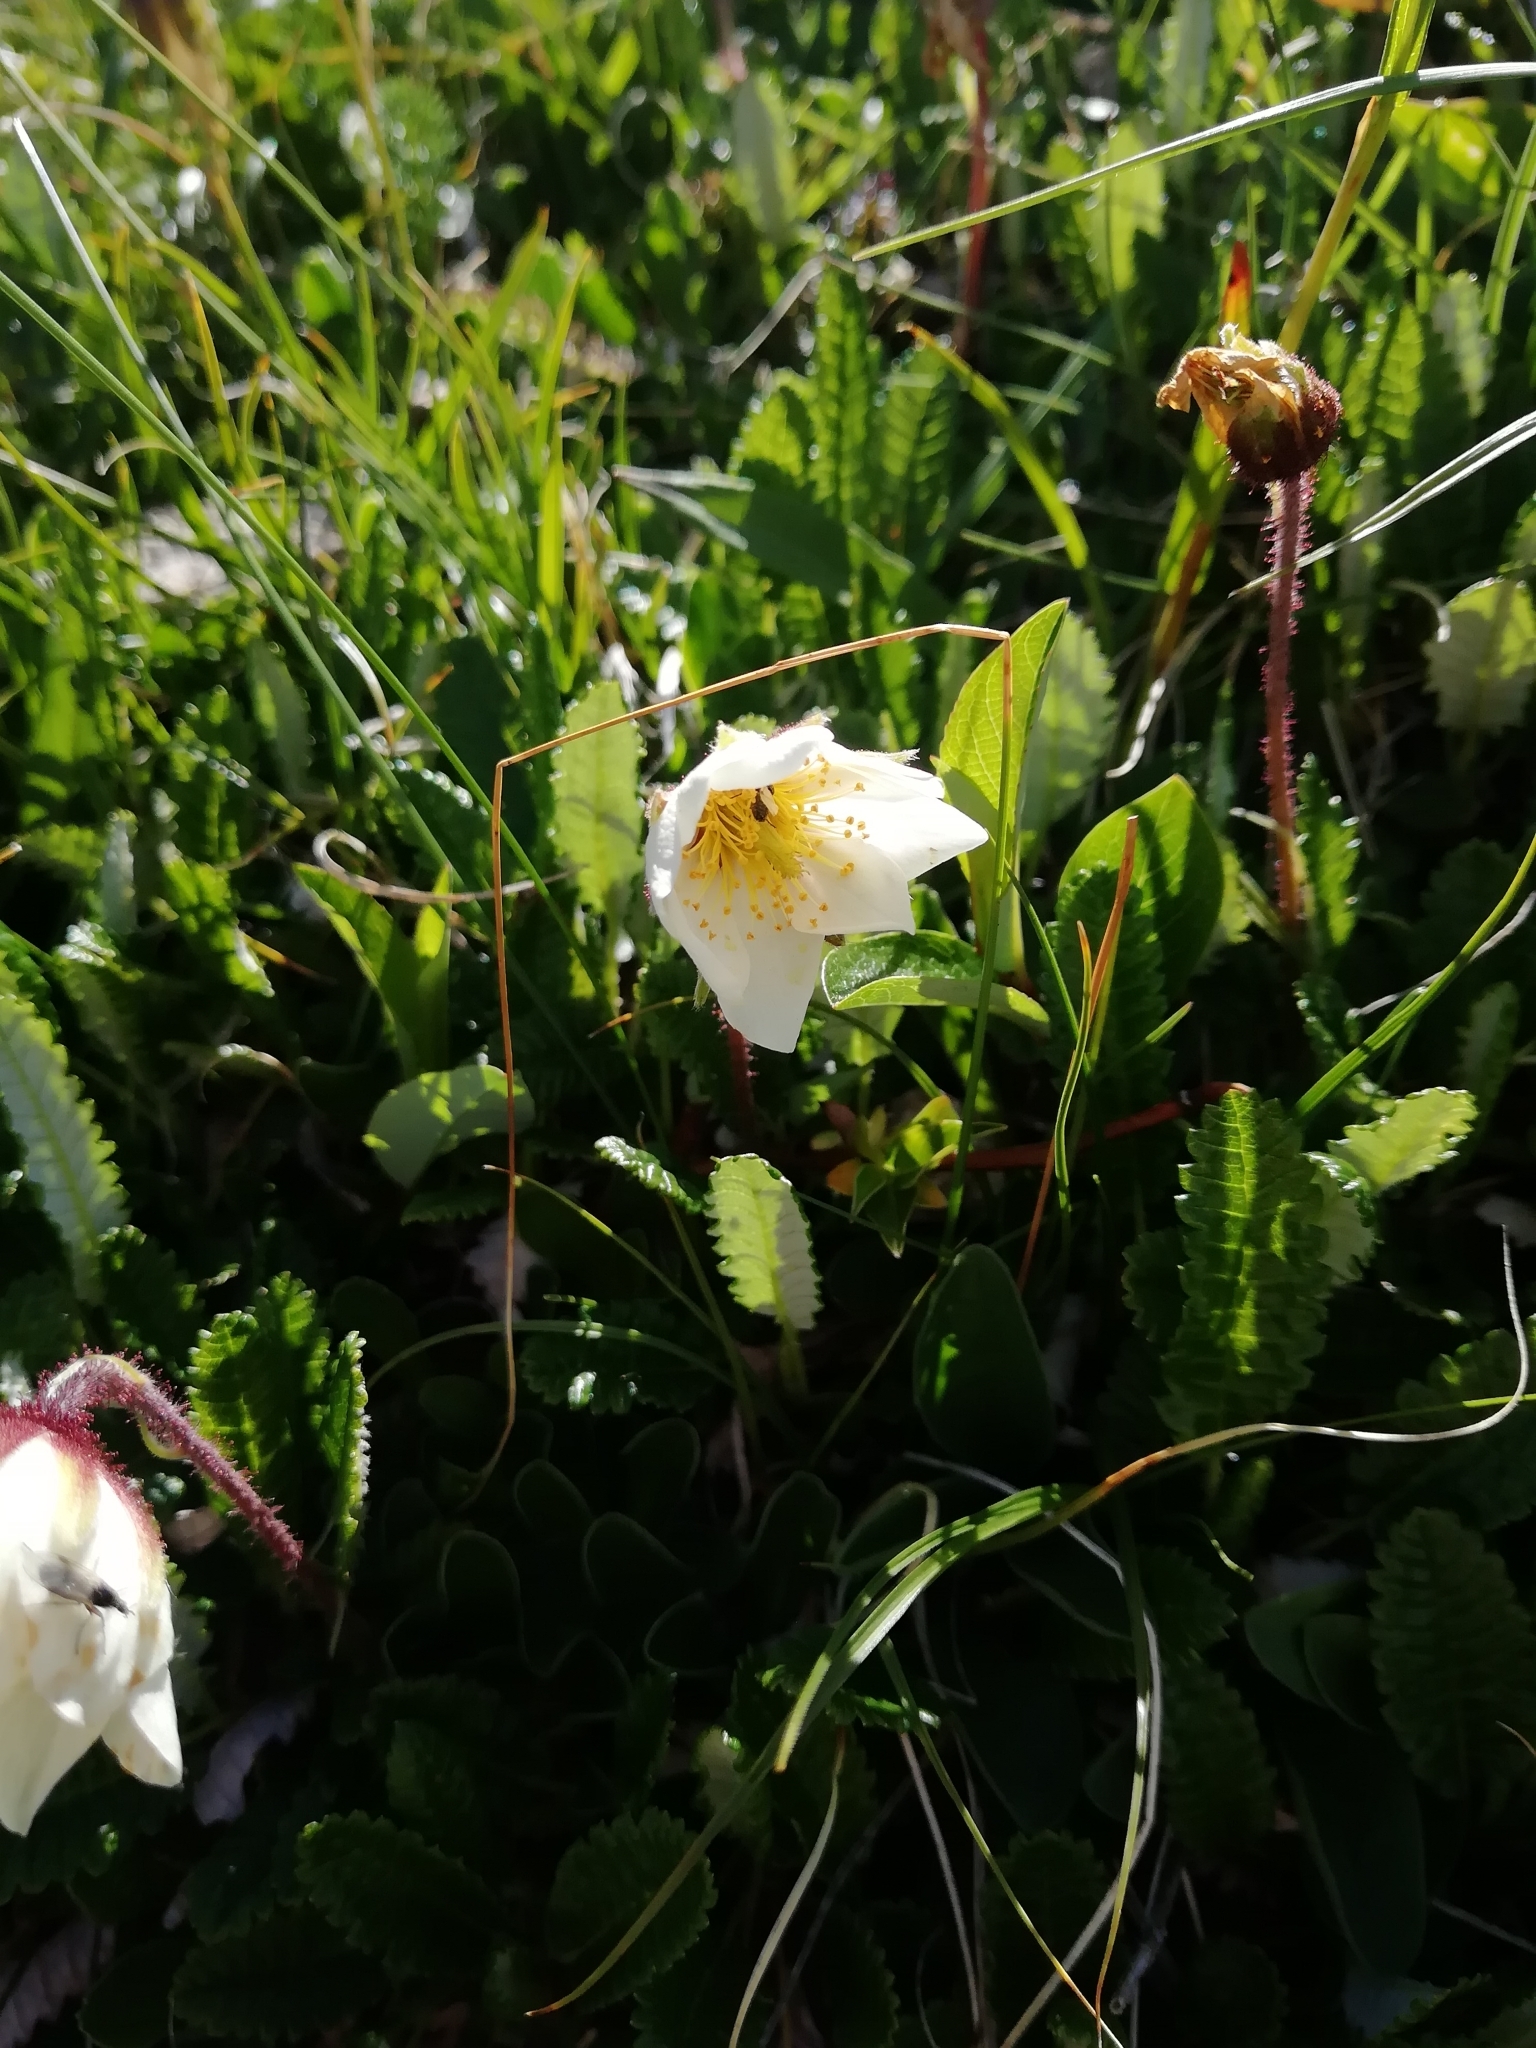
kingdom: Plantae
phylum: Tracheophyta
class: Magnoliopsida
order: Rosales
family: Rosaceae
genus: Dryas
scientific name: Dryas octopetala
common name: Eight-petal mountain-avens
